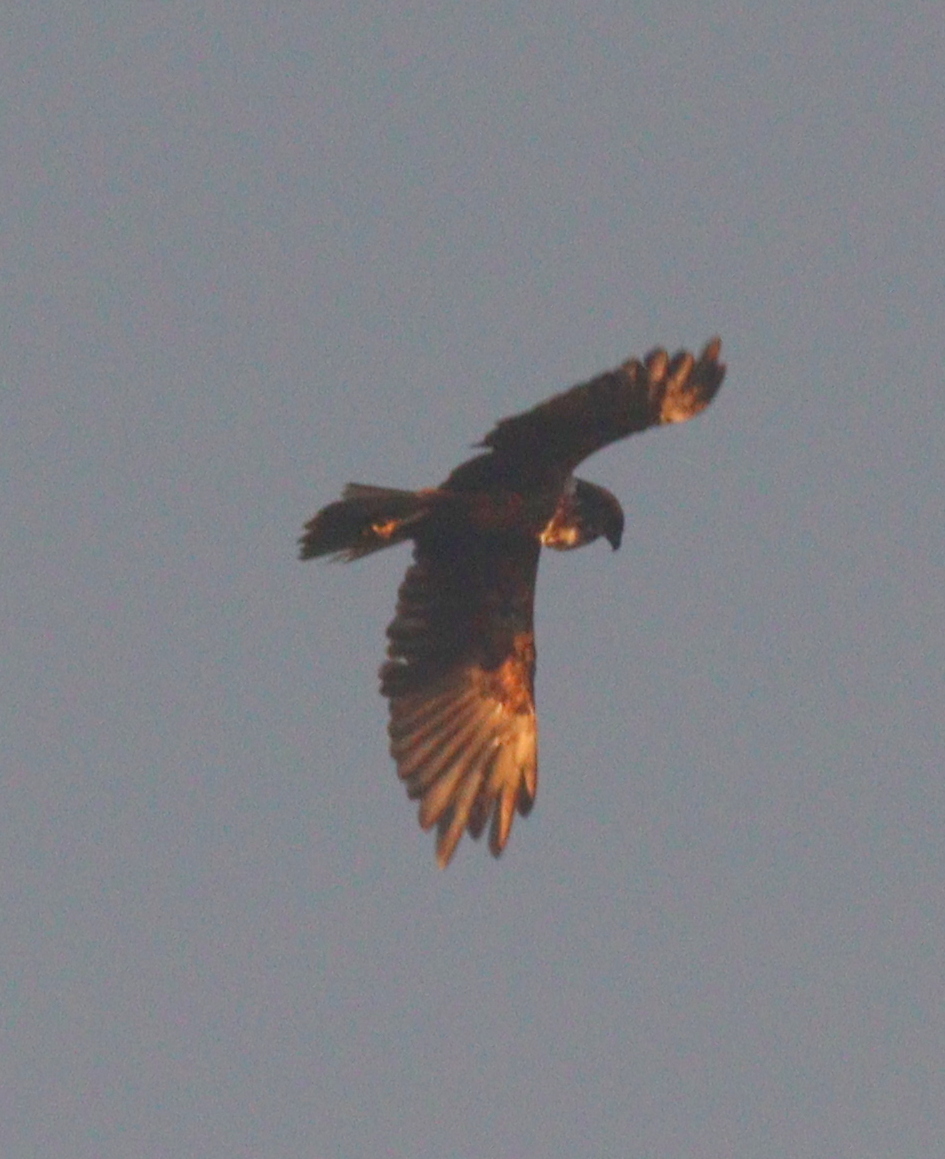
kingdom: Animalia
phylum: Chordata
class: Aves
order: Accipitriformes
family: Accipitridae
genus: Circus
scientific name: Circus aeruginosus
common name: Western marsh harrier
